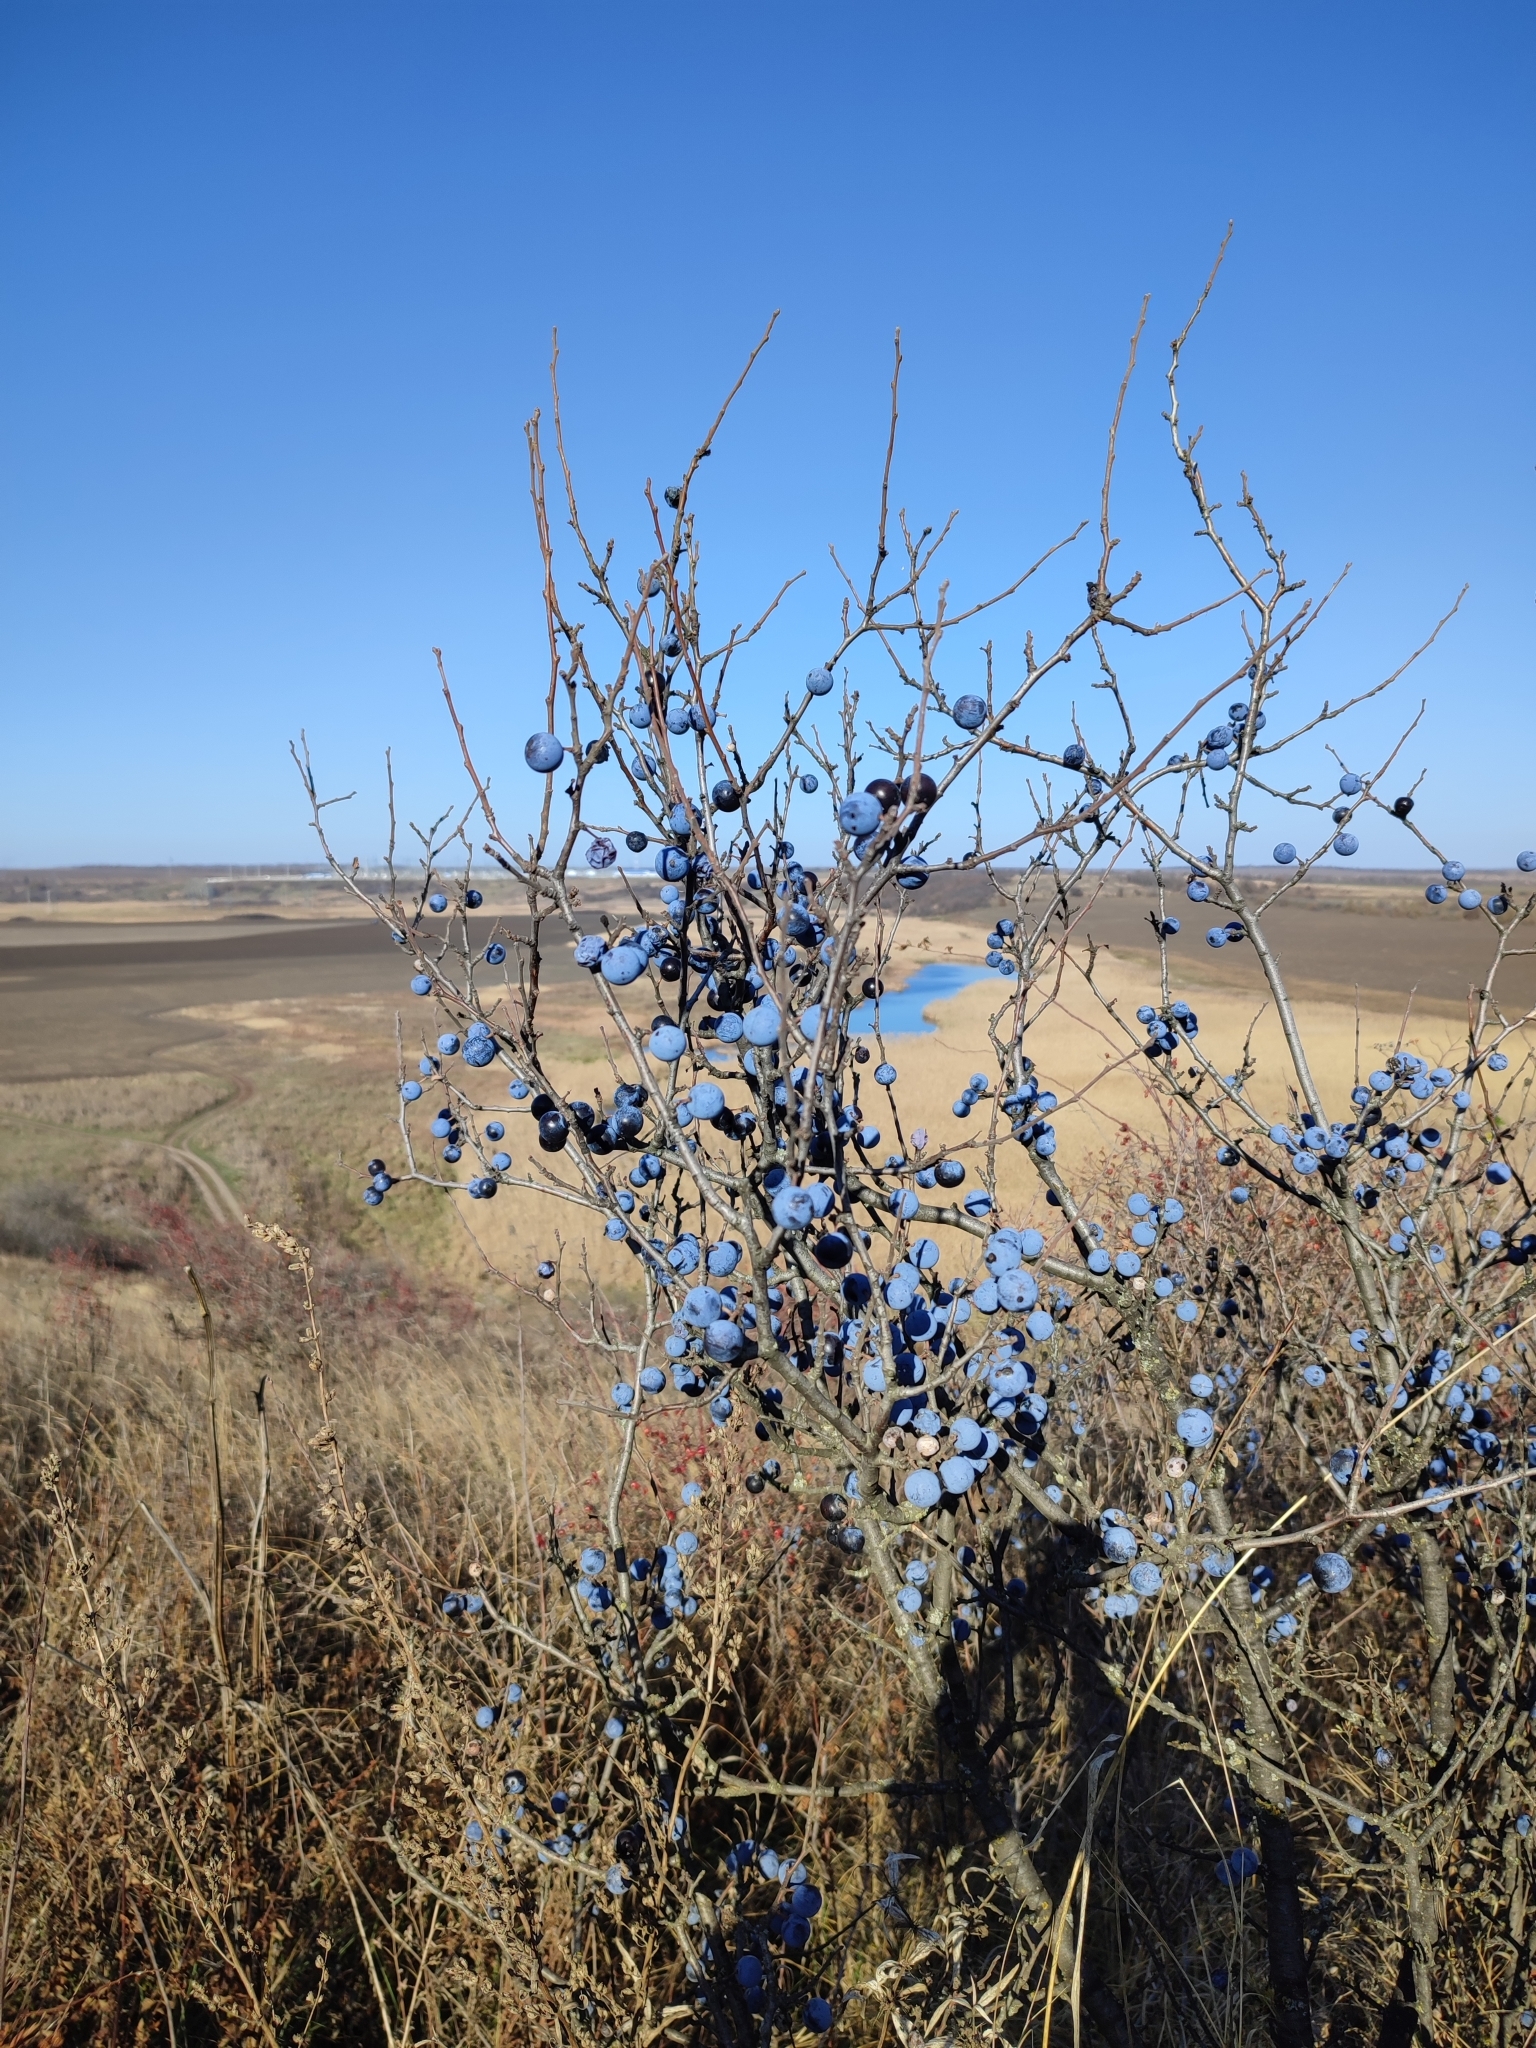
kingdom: Plantae
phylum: Tracheophyta
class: Magnoliopsida
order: Rosales
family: Rosaceae
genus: Prunus
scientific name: Prunus spinosa
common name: Blackthorn
